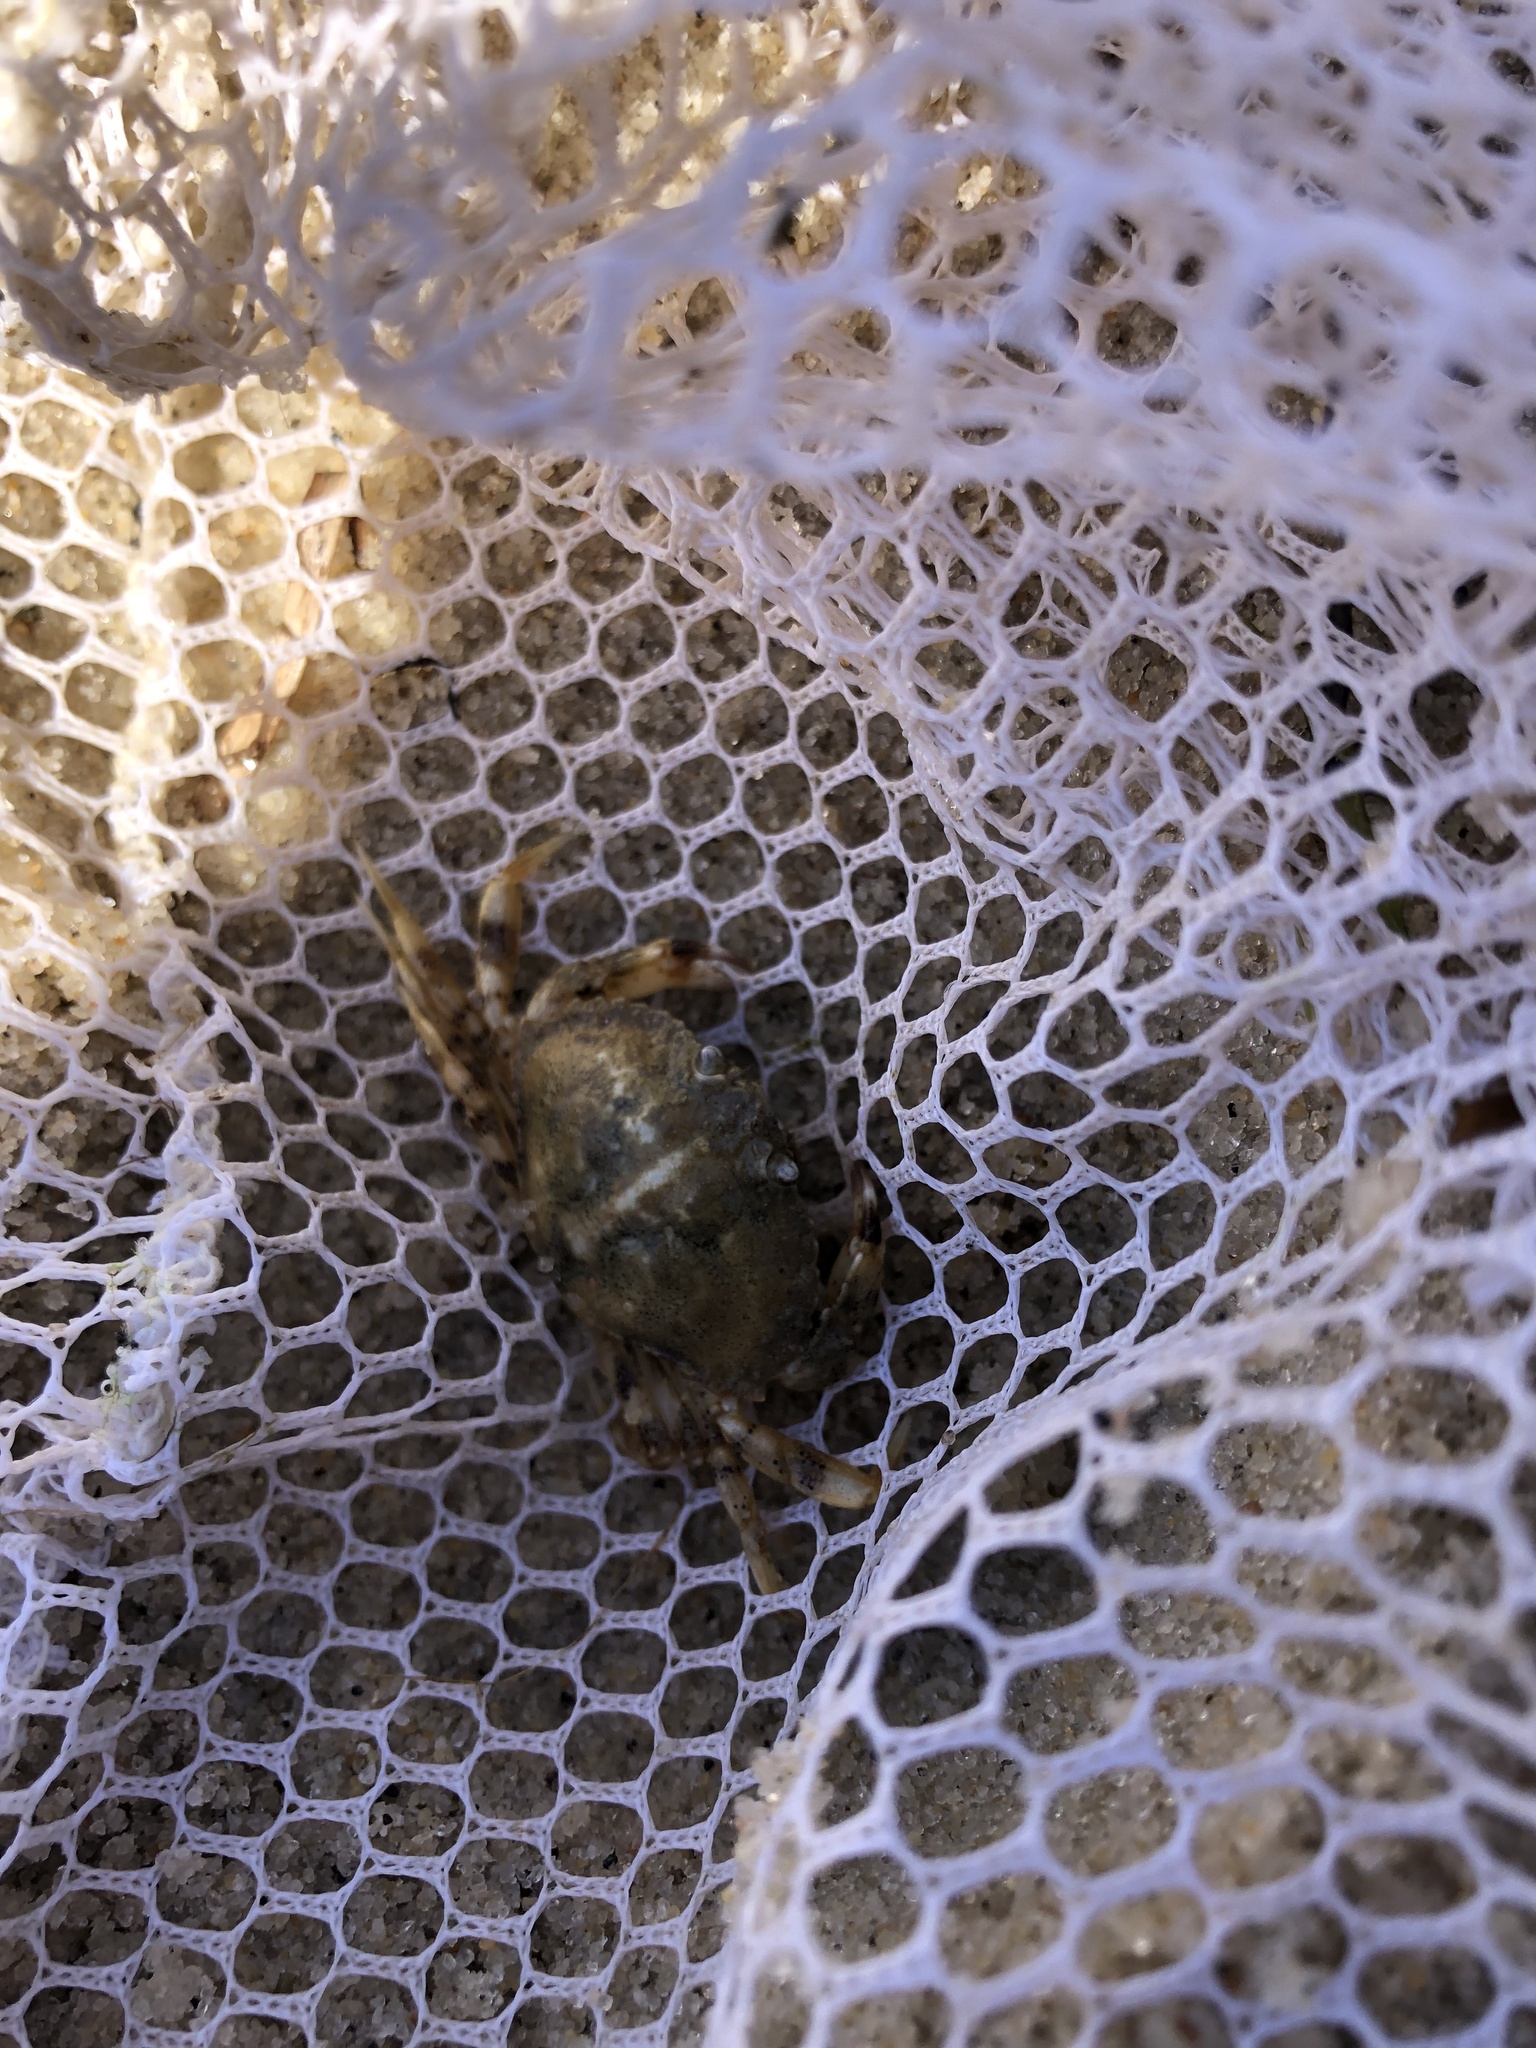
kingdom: Animalia
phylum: Arthropoda
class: Malacostraca
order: Decapoda
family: Cancridae
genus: Cancer
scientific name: Cancer irroratus
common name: Atlantic rock crab
